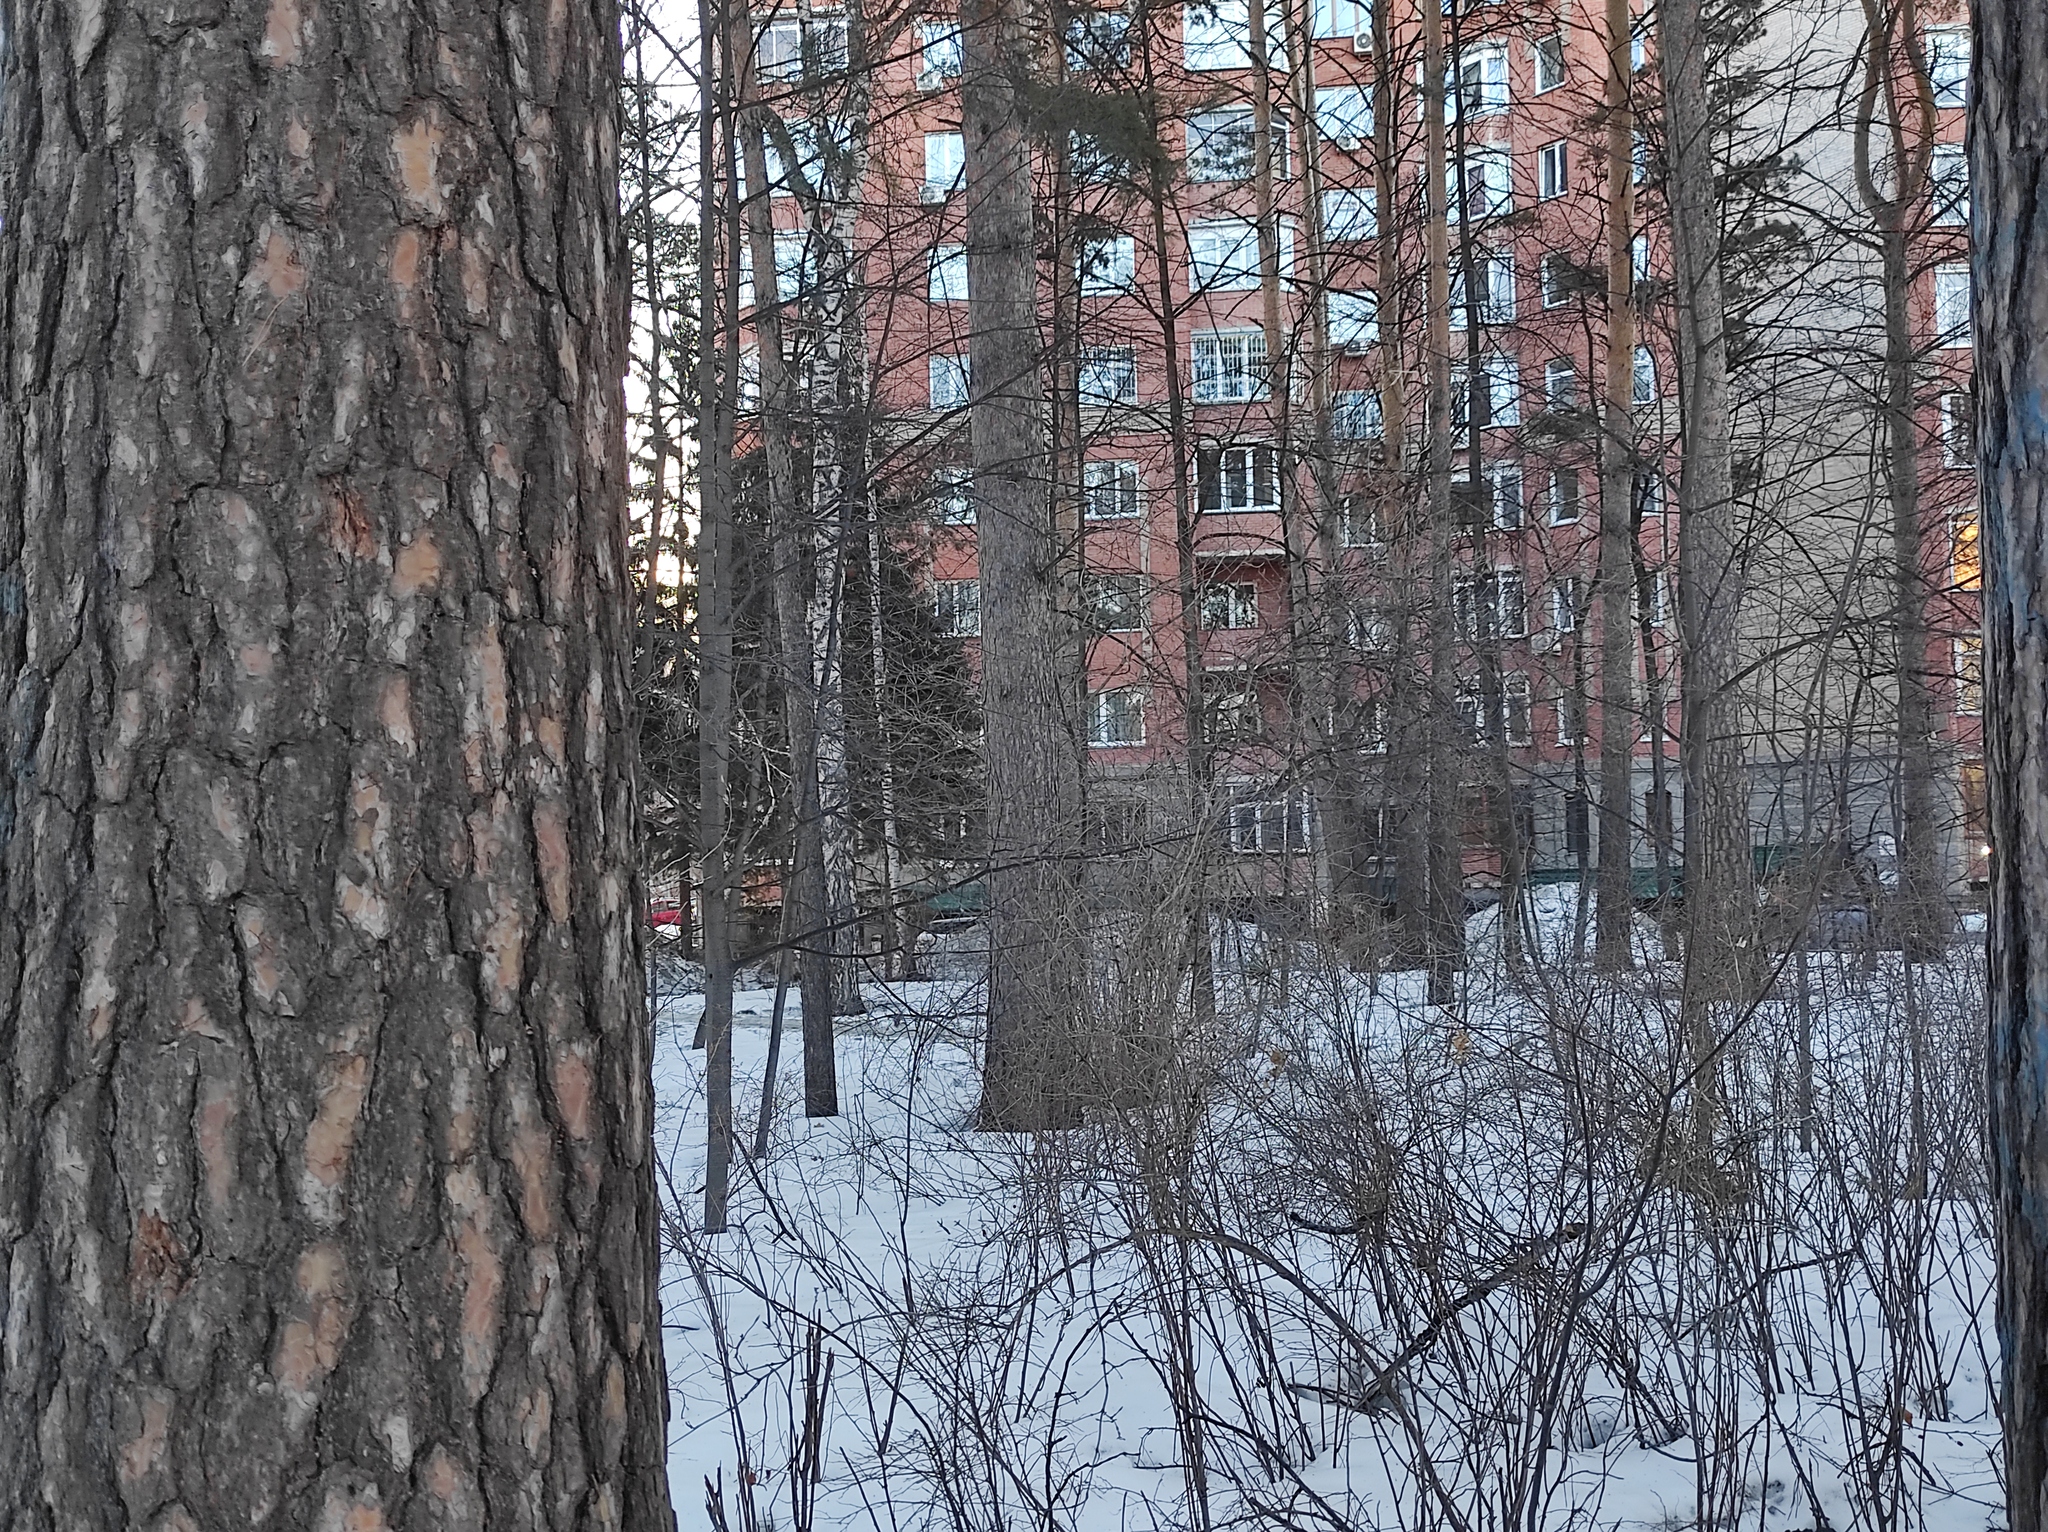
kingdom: Animalia
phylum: Chordata
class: Aves
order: Passeriformes
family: Paridae
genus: Parus
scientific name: Parus major
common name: Great tit
